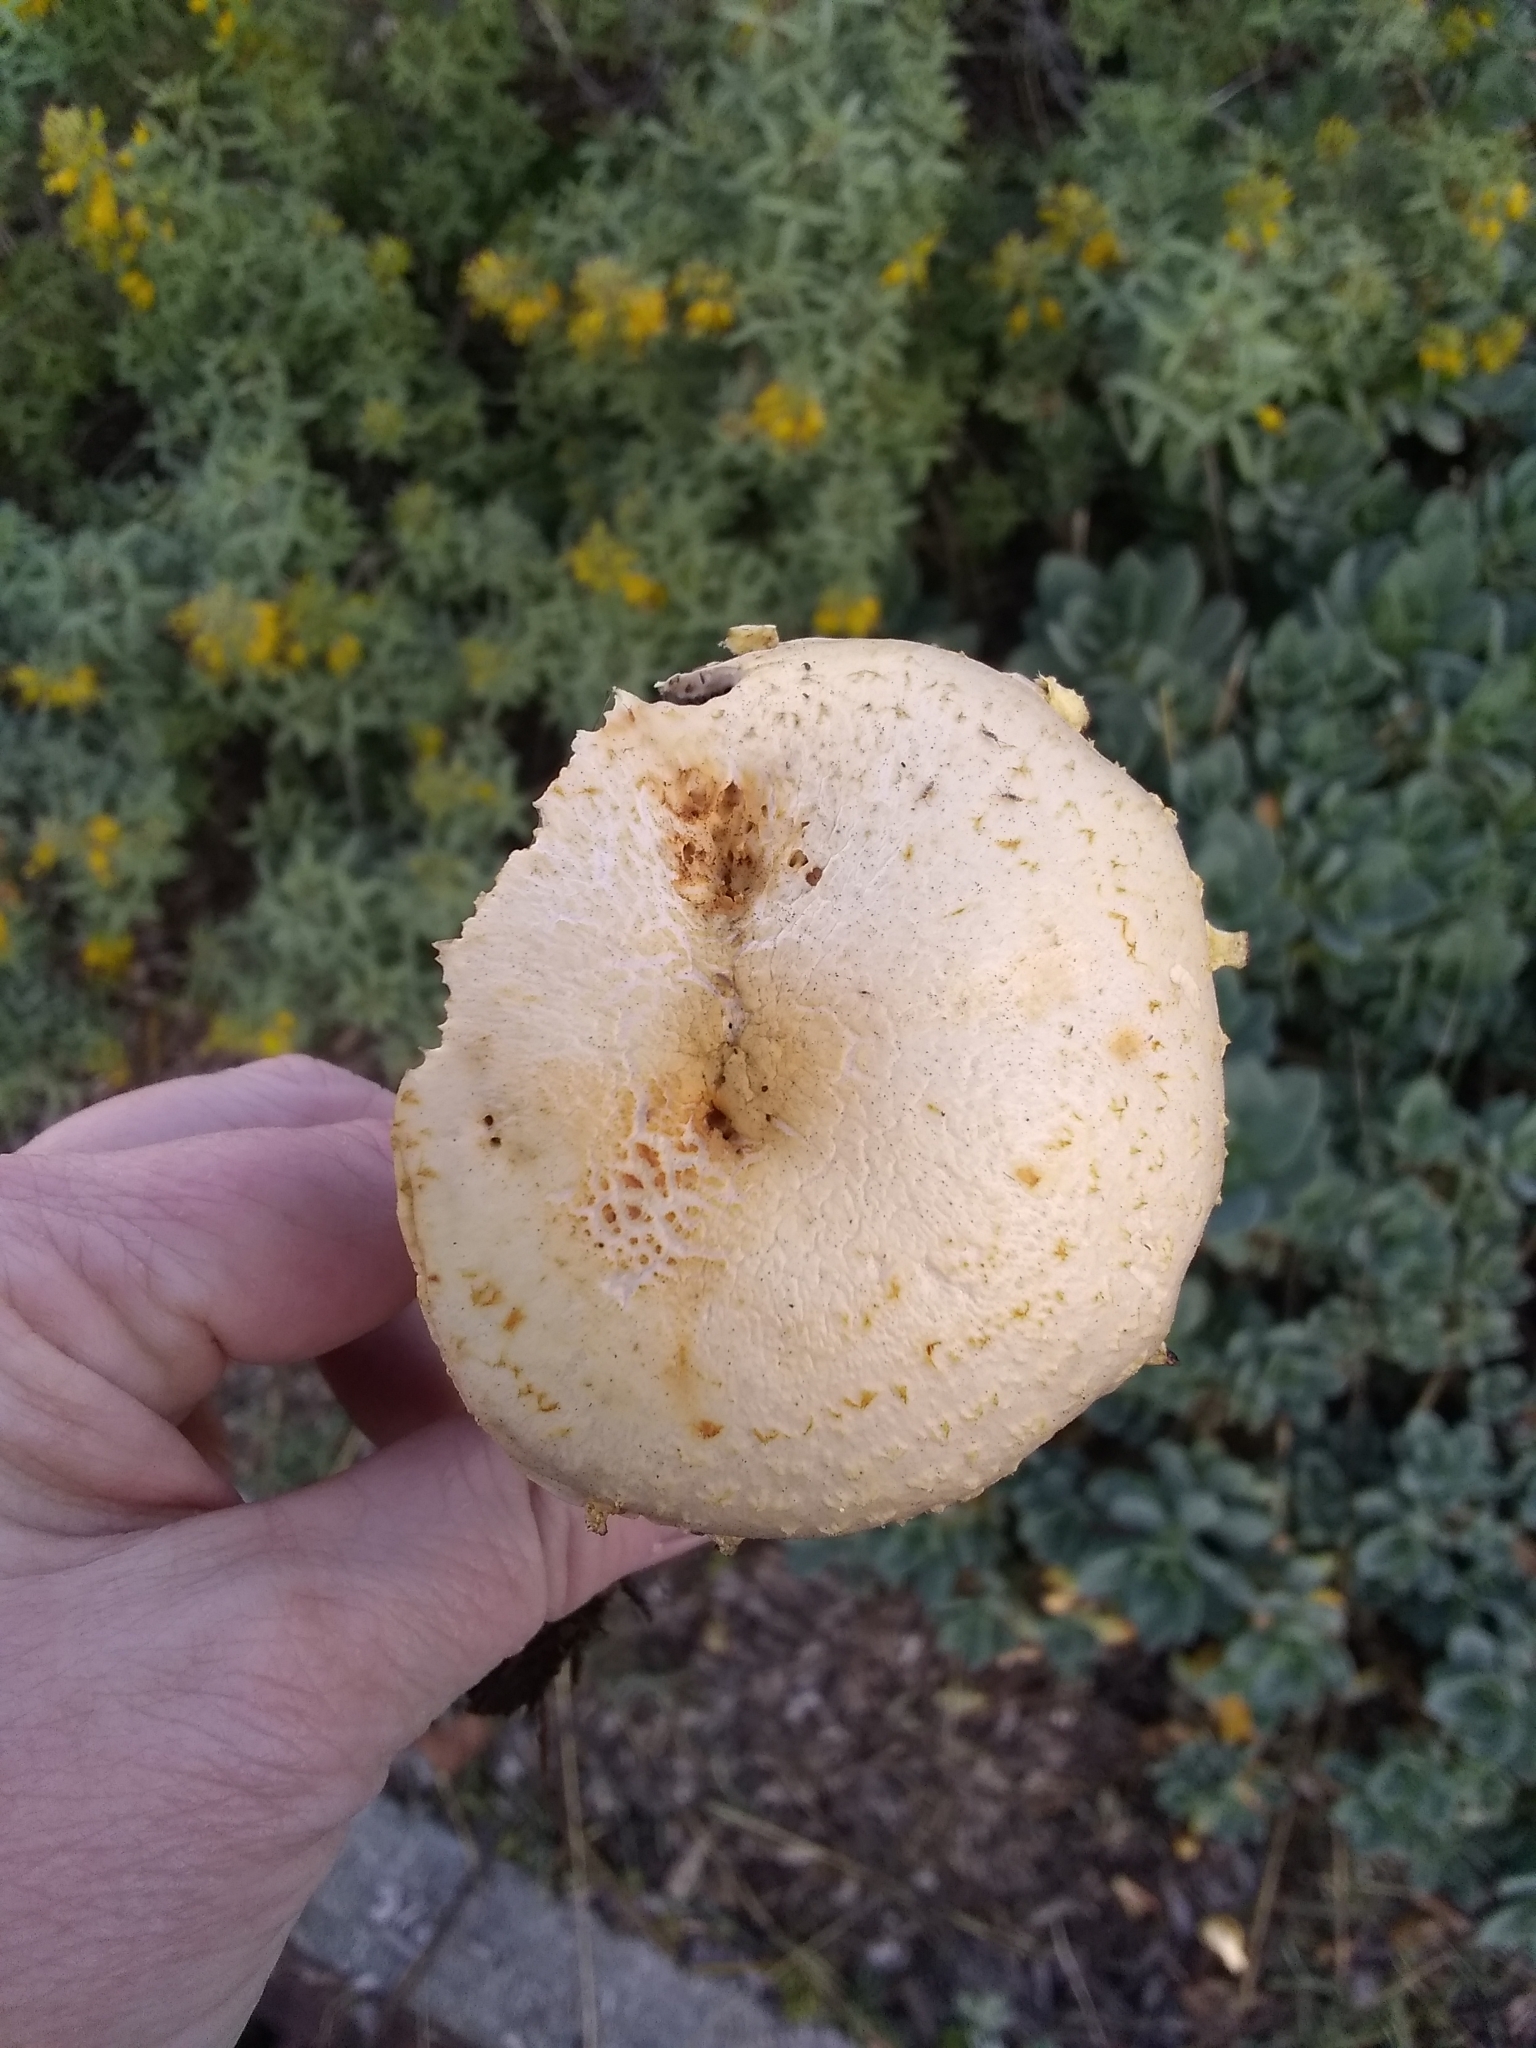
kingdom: Fungi
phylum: Basidiomycota
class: Agaricomycetes
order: Agaricales
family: Strophariaceae
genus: Leratiomyces
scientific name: Leratiomyces percevalii
